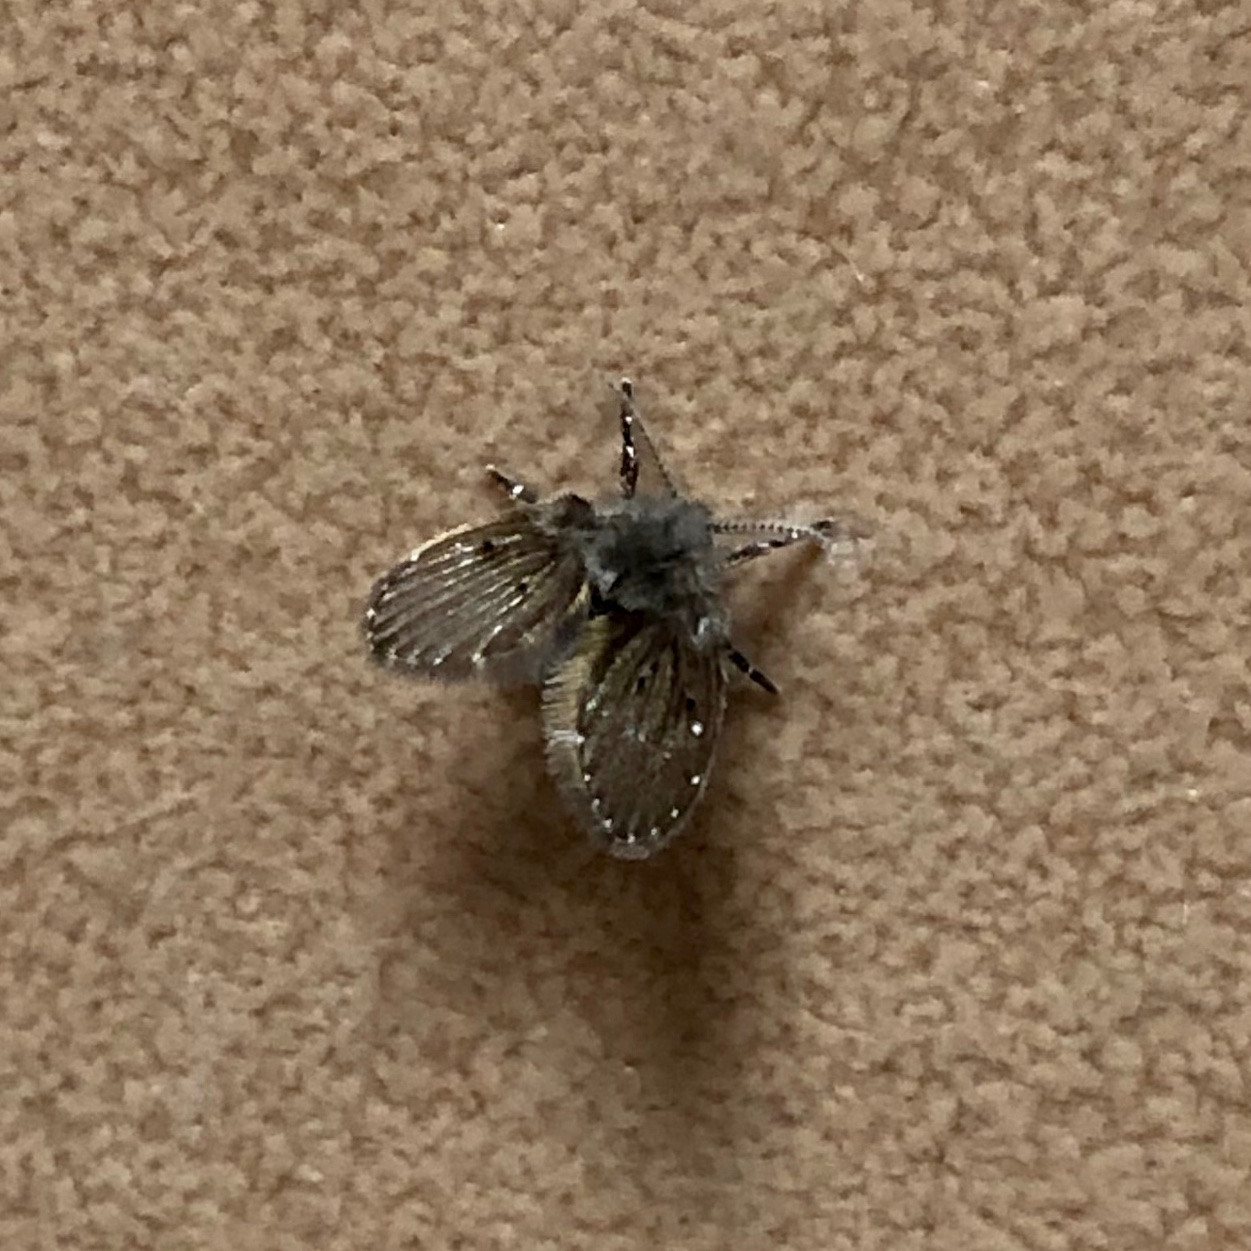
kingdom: Animalia
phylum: Arthropoda
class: Insecta
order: Diptera
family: Psychodidae
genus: Clogmia
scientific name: Clogmia albipunctatus
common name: White-spotted moth fly
